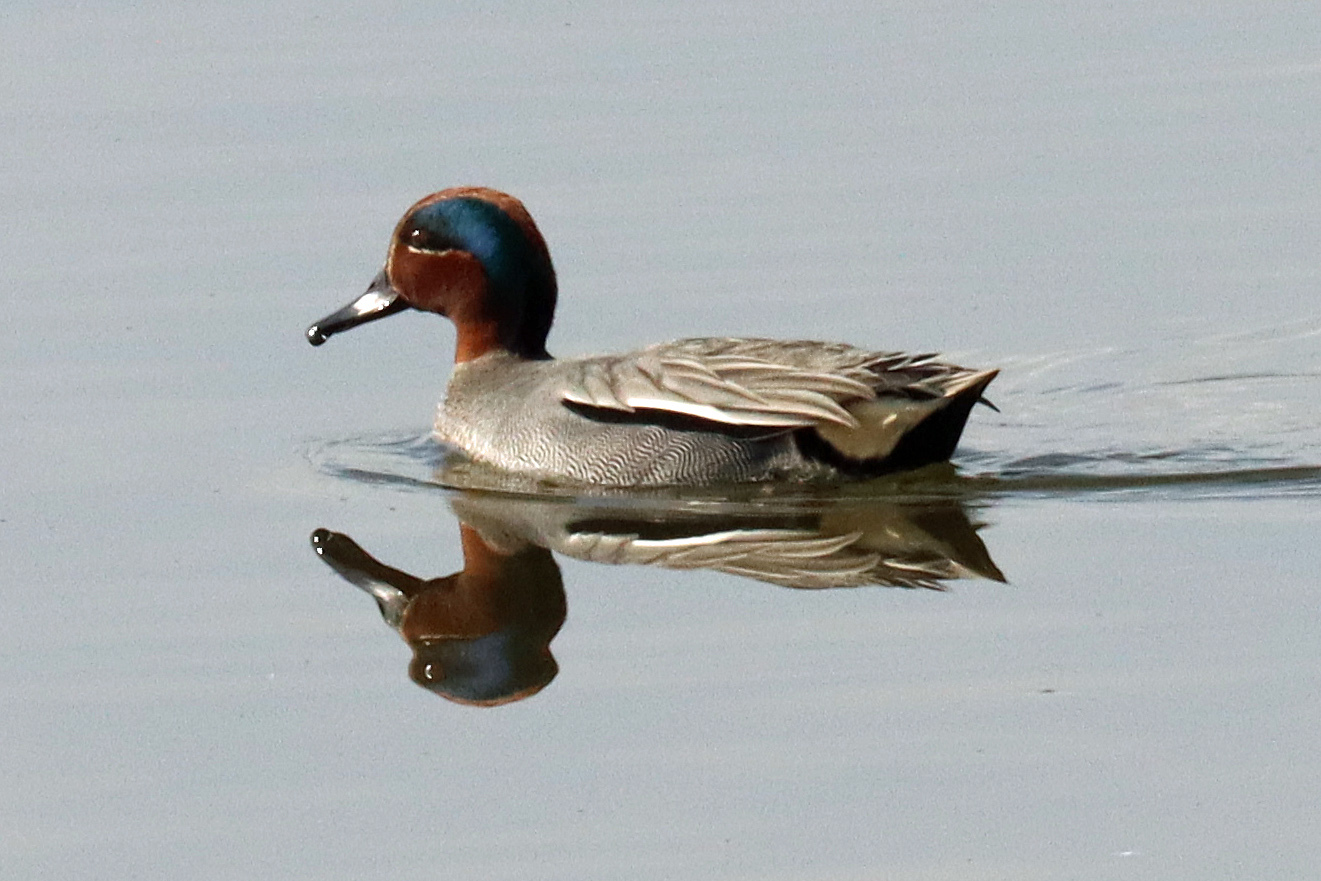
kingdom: Animalia
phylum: Chordata
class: Aves
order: Anseriformes
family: Anatidae
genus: Anas
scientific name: Anas crecca
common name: Eurasian teal
